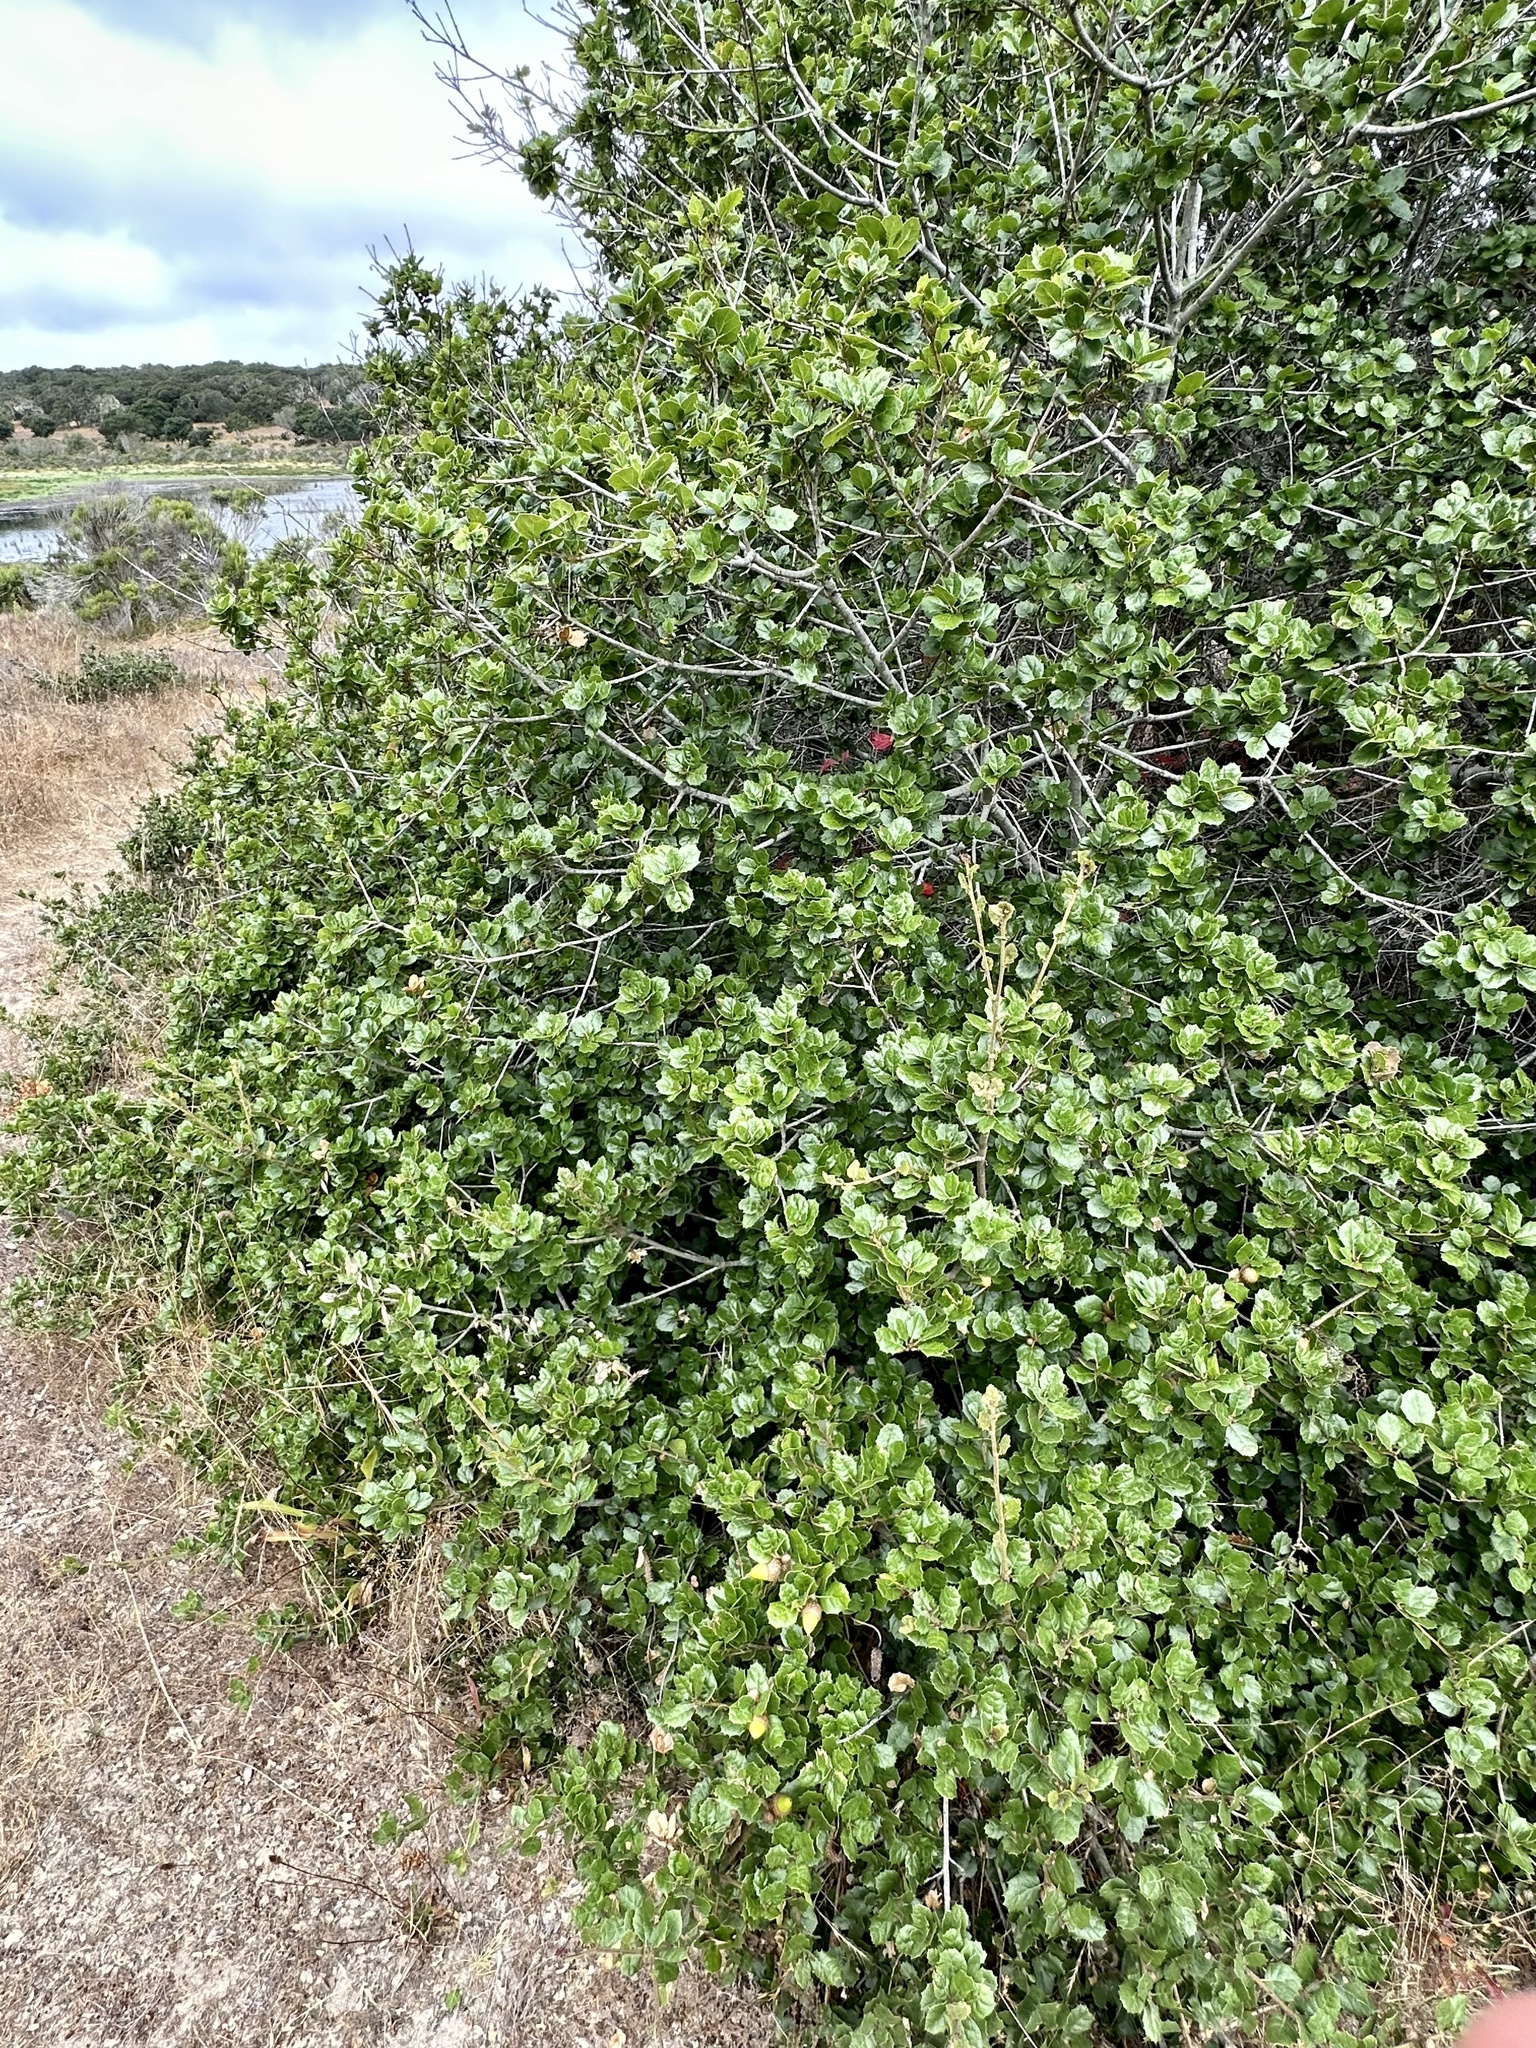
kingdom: Plantae
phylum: Tracheophyta
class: Magnoliopsida
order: Fagales
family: Fagaceae
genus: Quercus
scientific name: Quercus agrifolia
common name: California live oak
